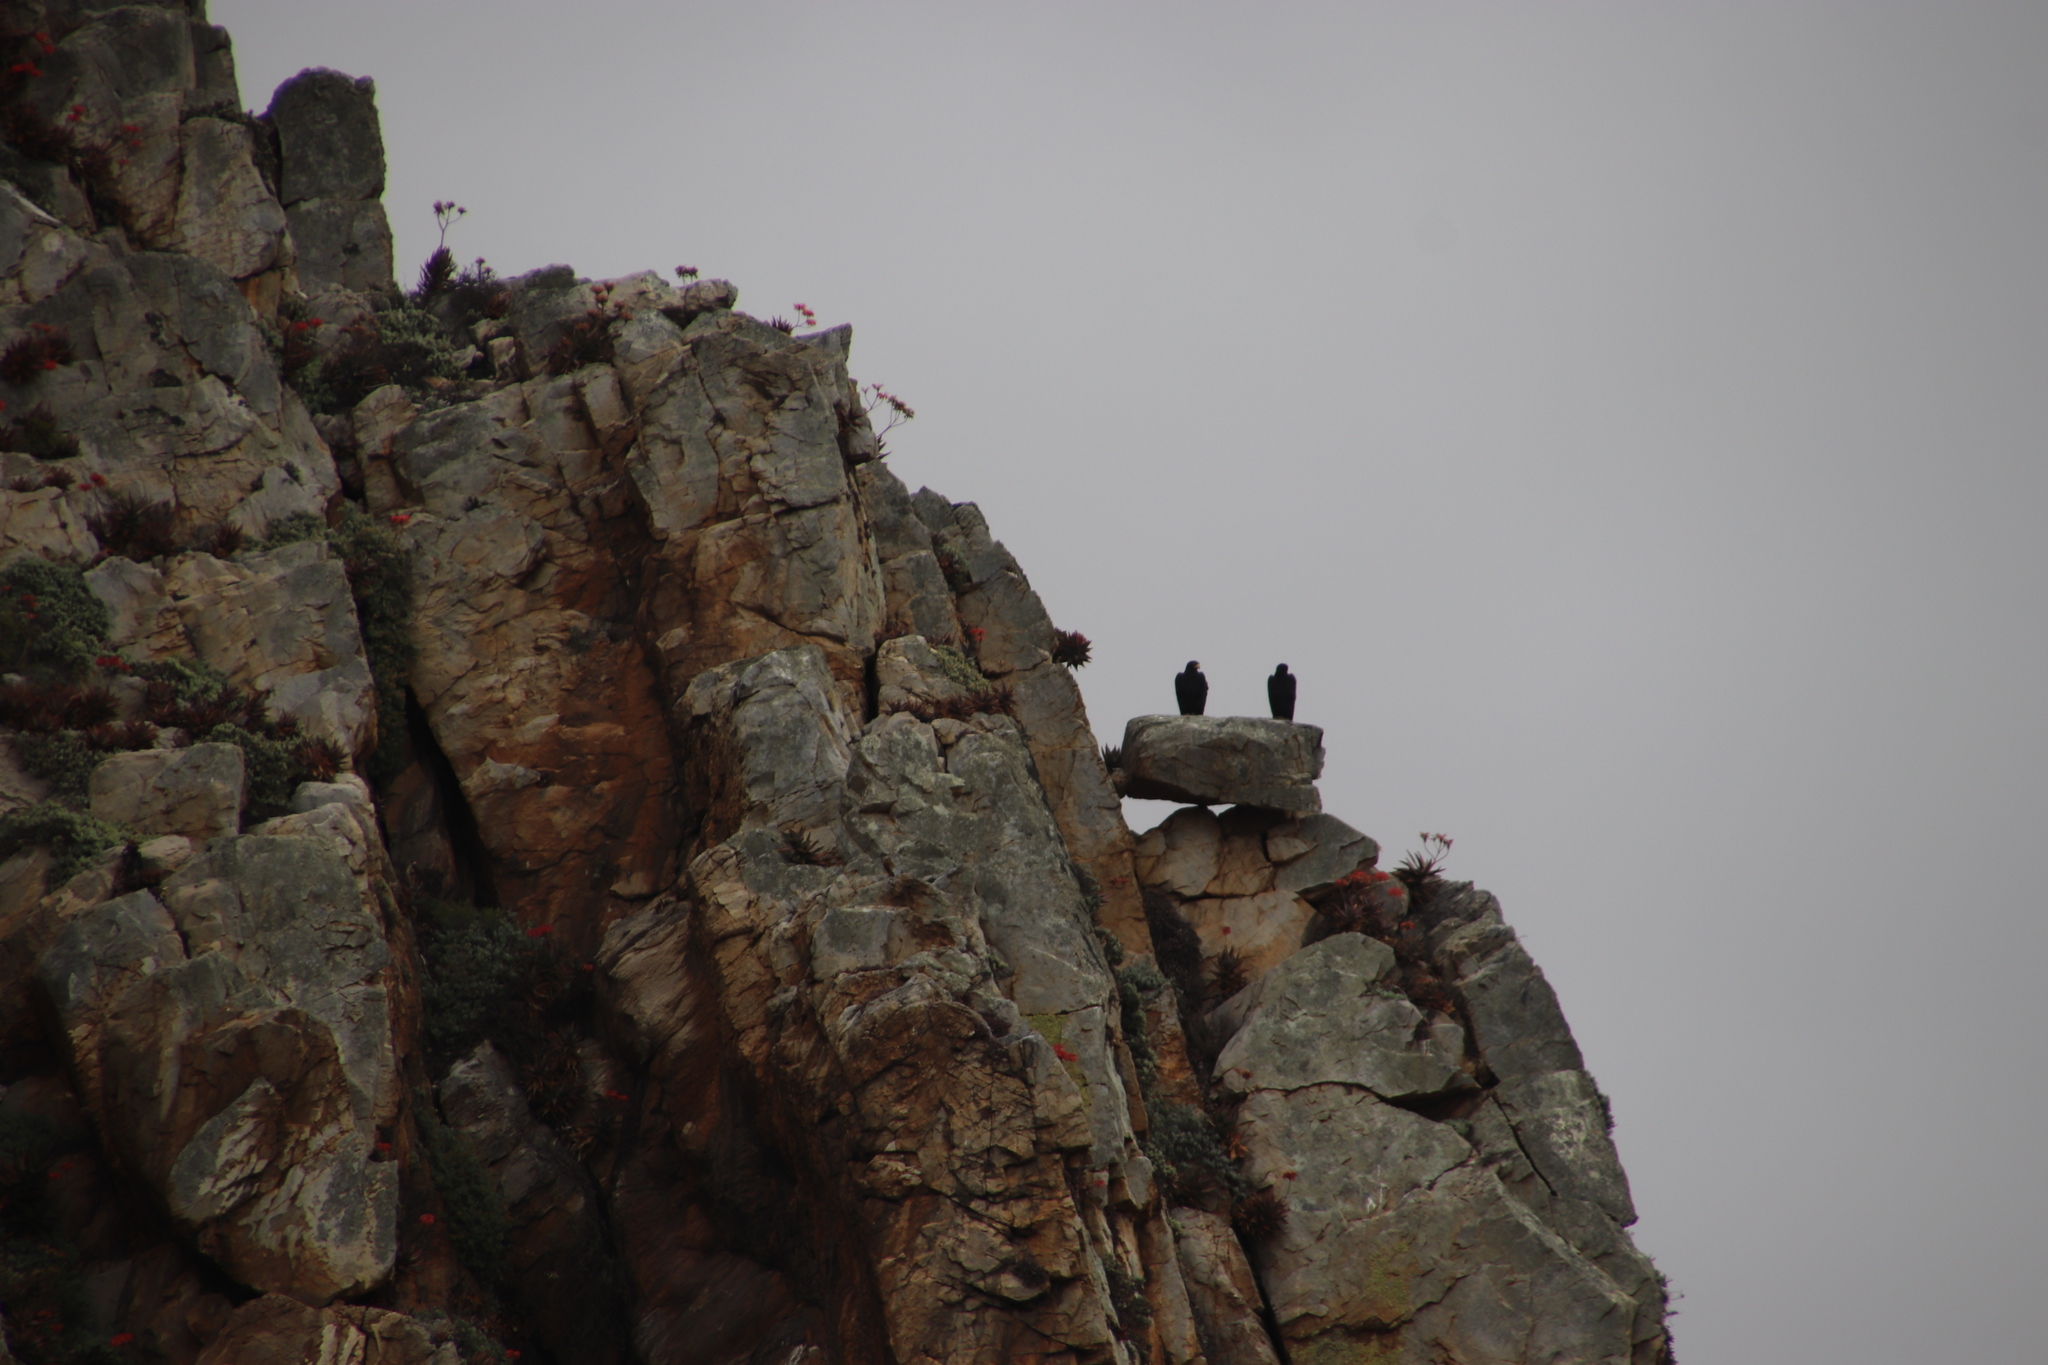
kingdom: Animalia
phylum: Chordata
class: Aves
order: Accipitriformes
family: Accipitridae
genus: Aquila
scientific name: Aquila verreauxii
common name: Verreaux's eagle
